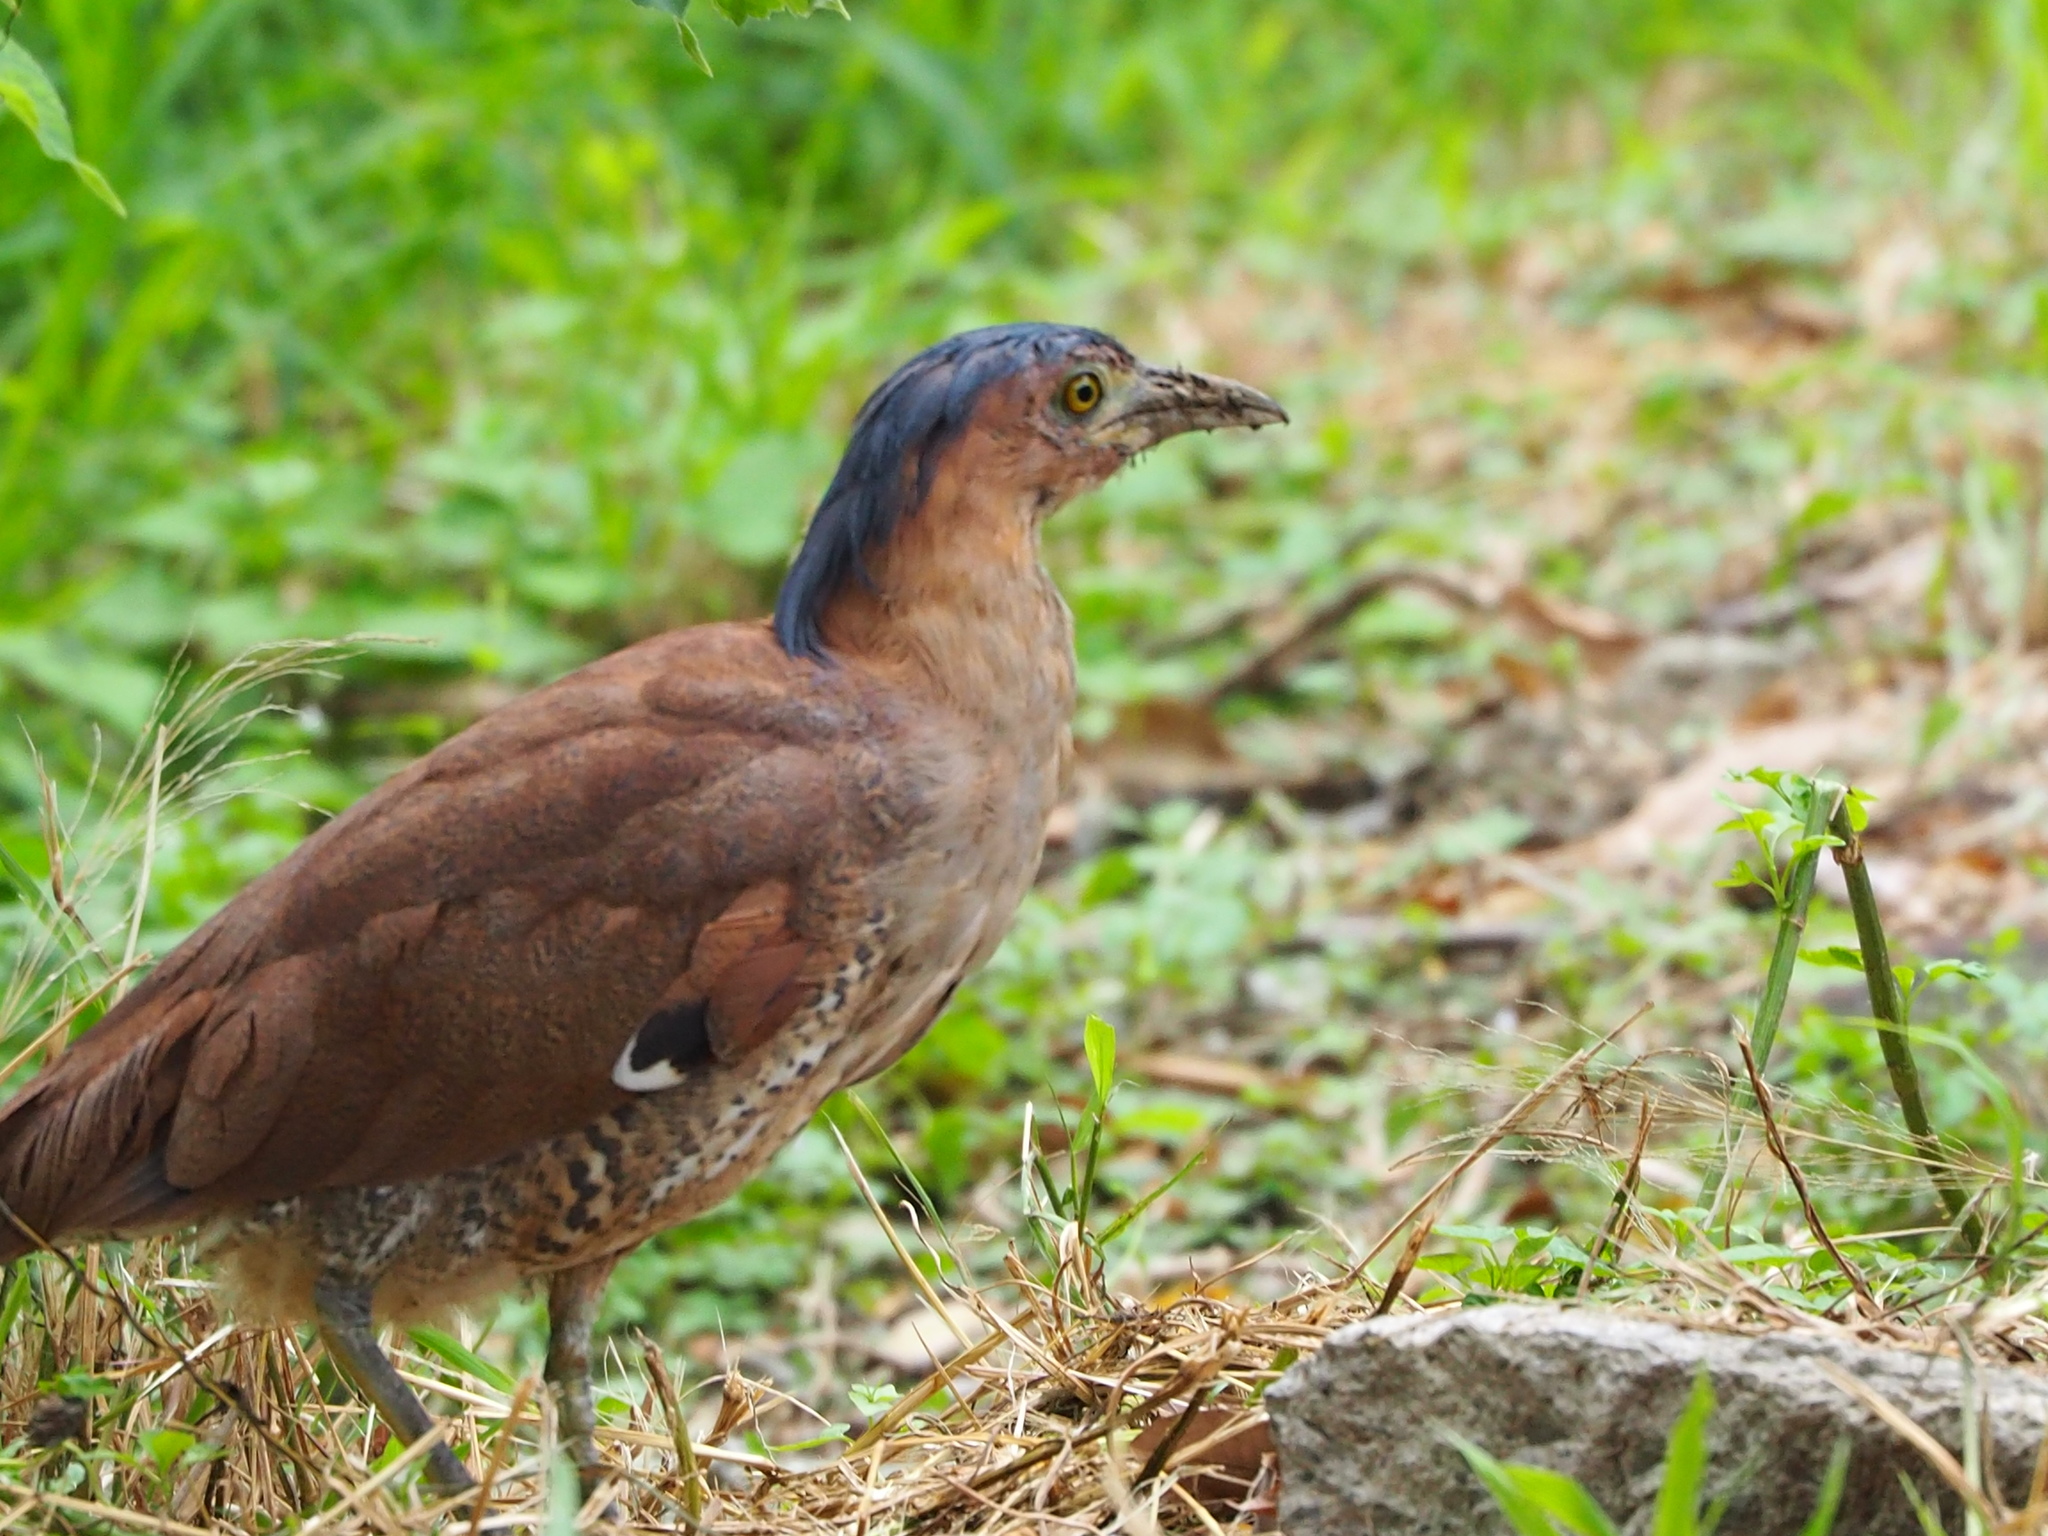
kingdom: Animalia
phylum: Chordata
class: Aves
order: Pelecaniformes
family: Ardeidae
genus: Gorsachius
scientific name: Gorsachius melanolophus
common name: Malayan night heron
